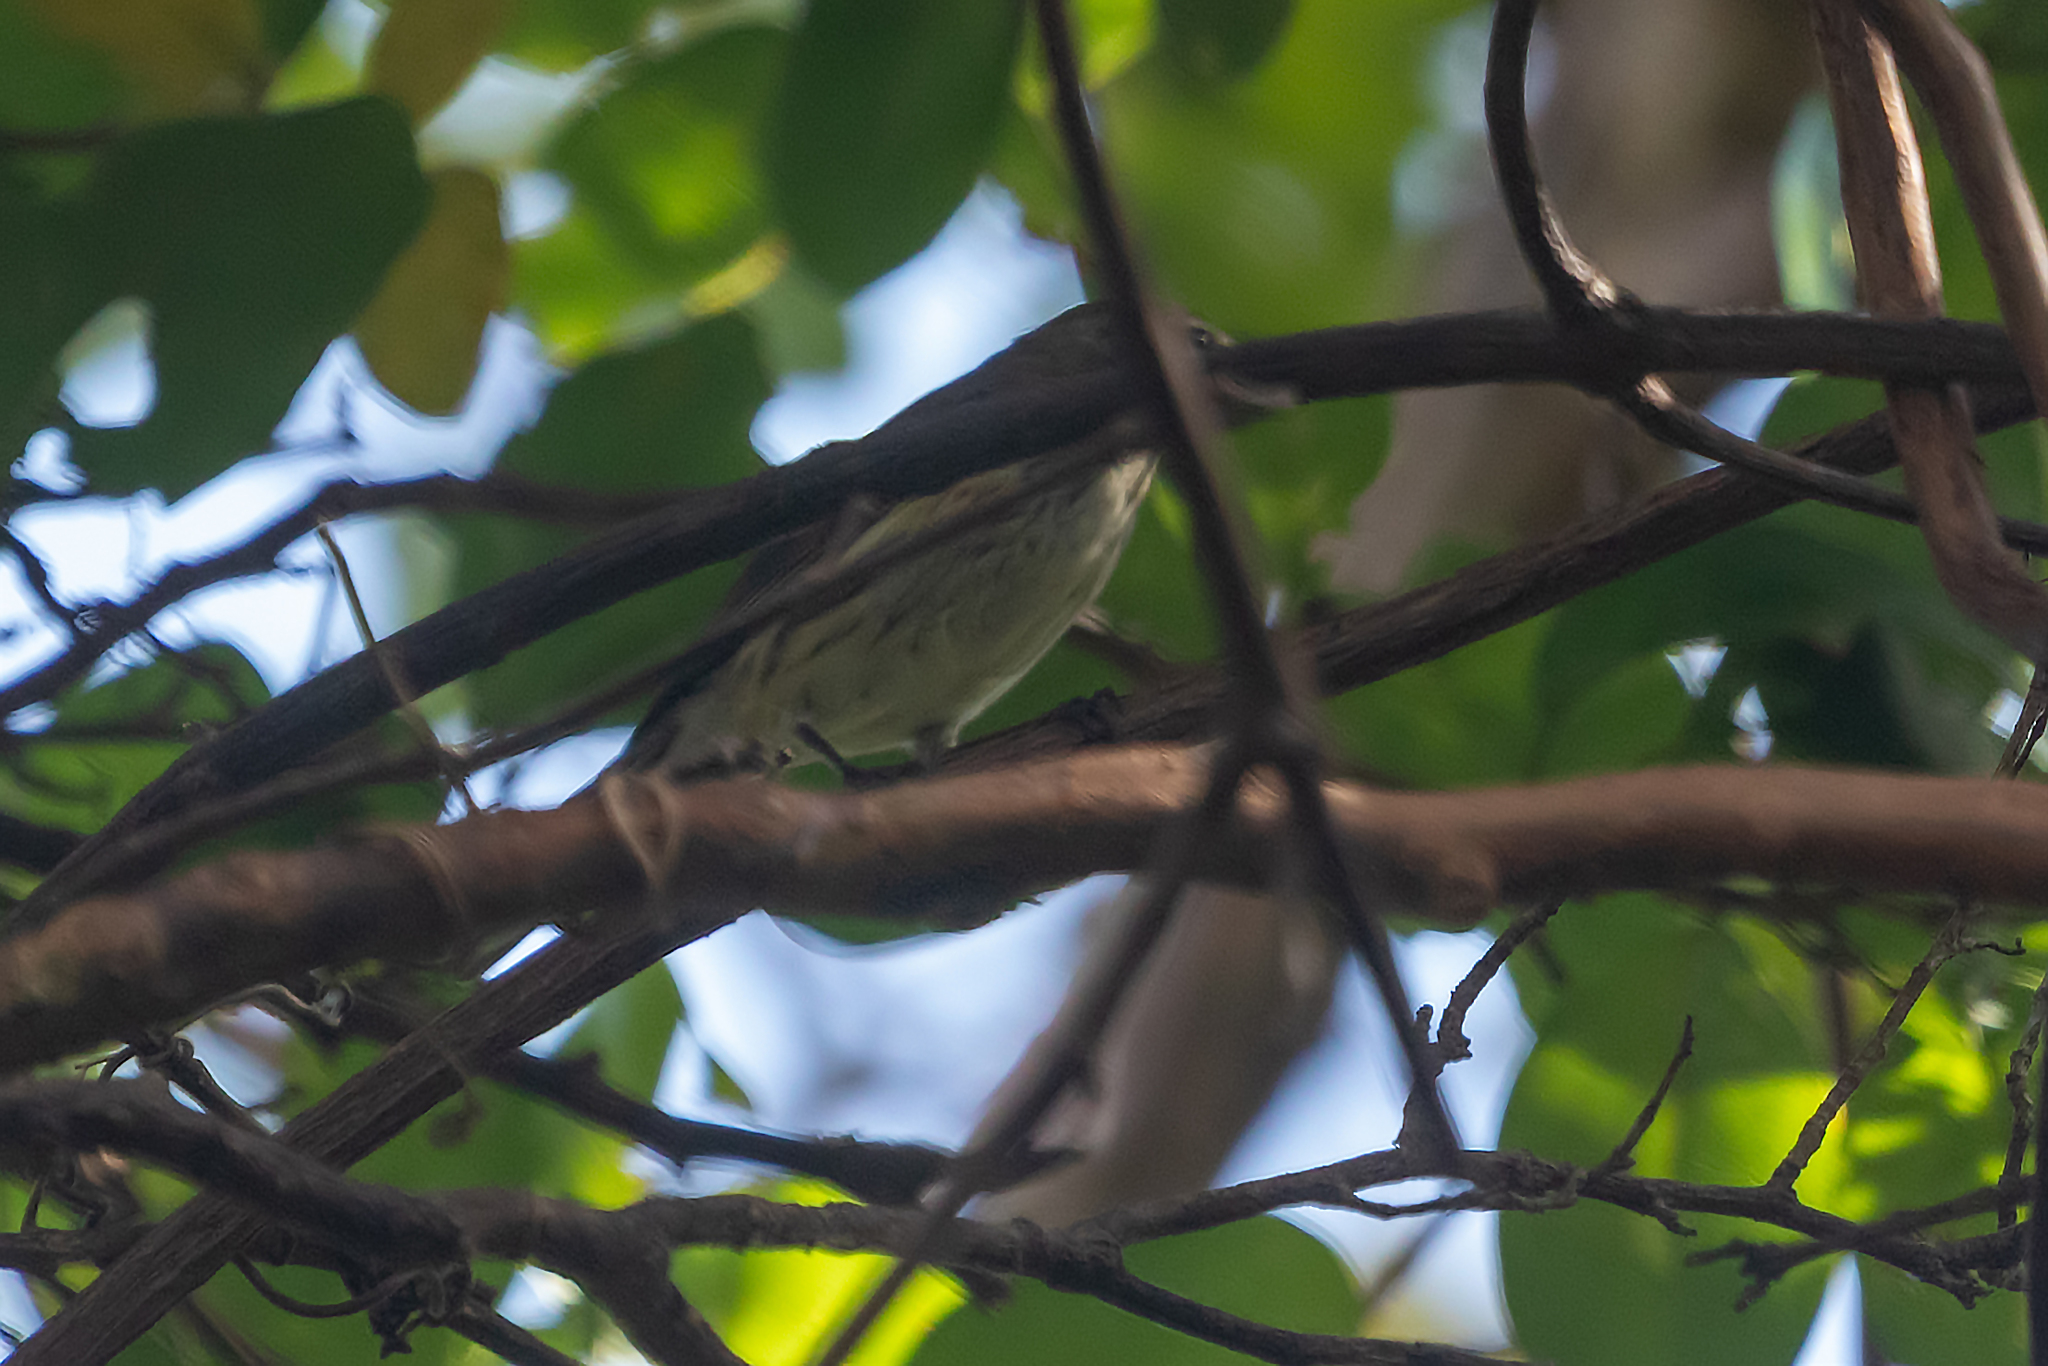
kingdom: Animalia
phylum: Chordata
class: Aves
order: Passeriformes
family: Parulidae
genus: Setophaga
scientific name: Setophaga coronata
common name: Myrtle warbler
